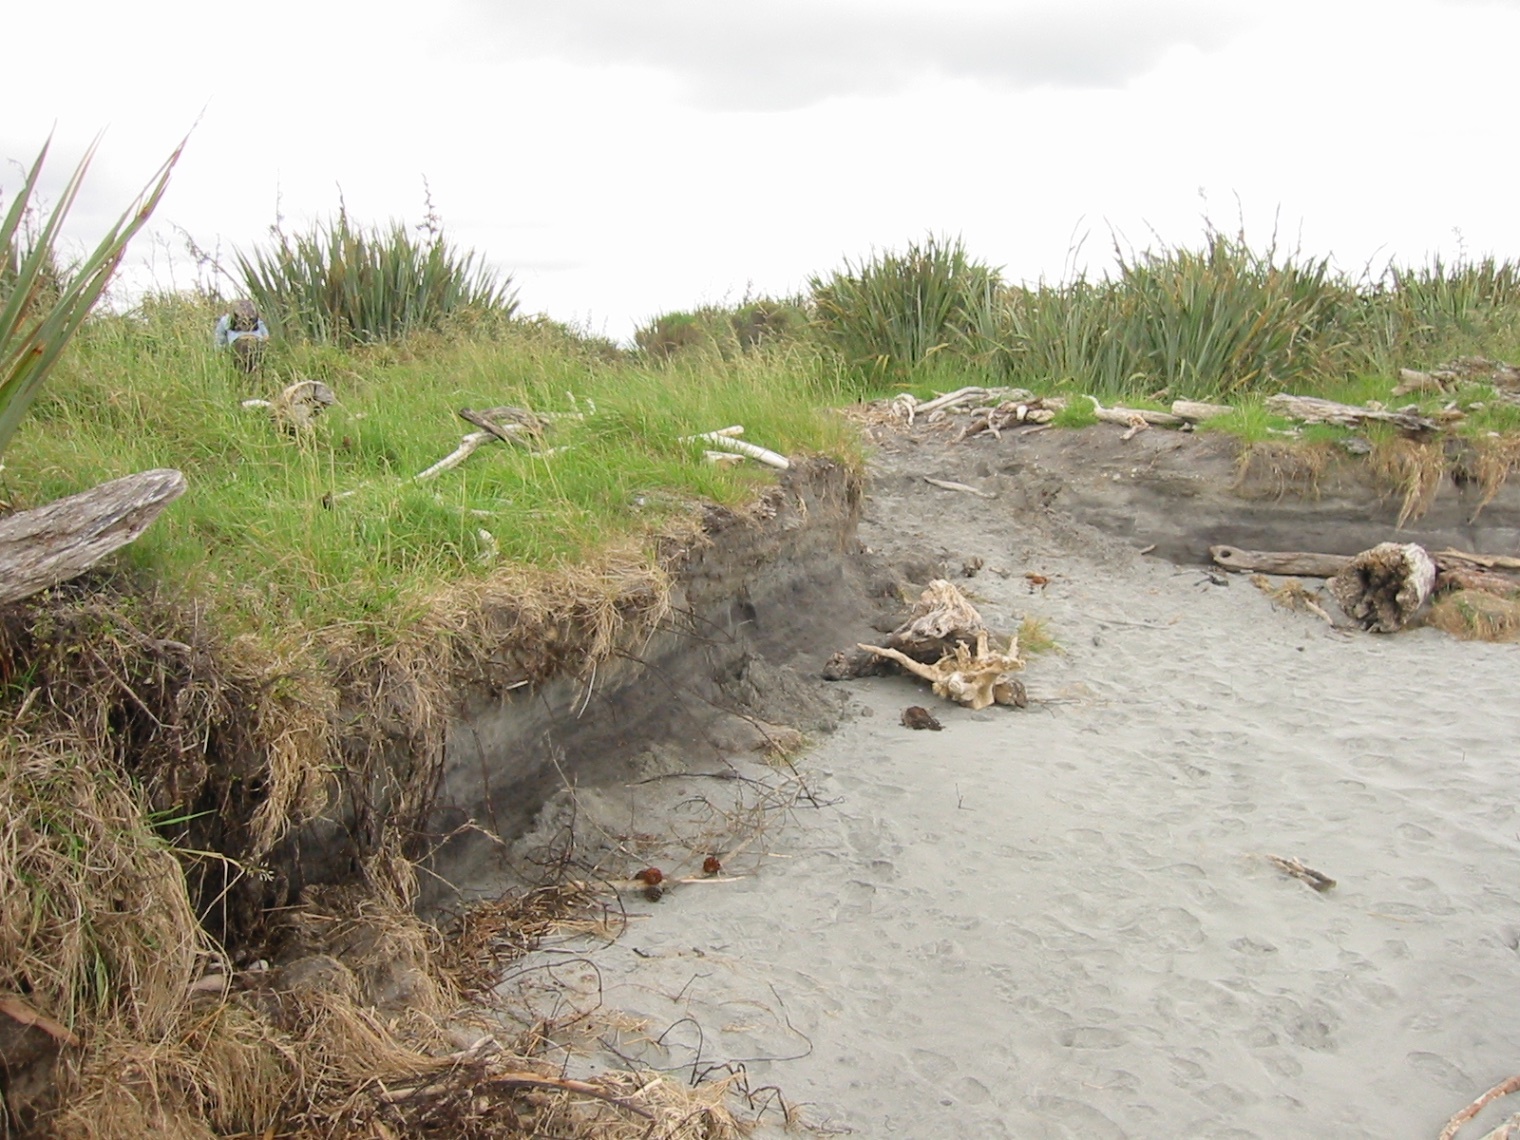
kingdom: Animalia
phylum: Chordata
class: Aves
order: Sphenisciformes
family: Spheniscidae
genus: Eudyptula
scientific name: Eudyptula minor
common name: Little penguin
